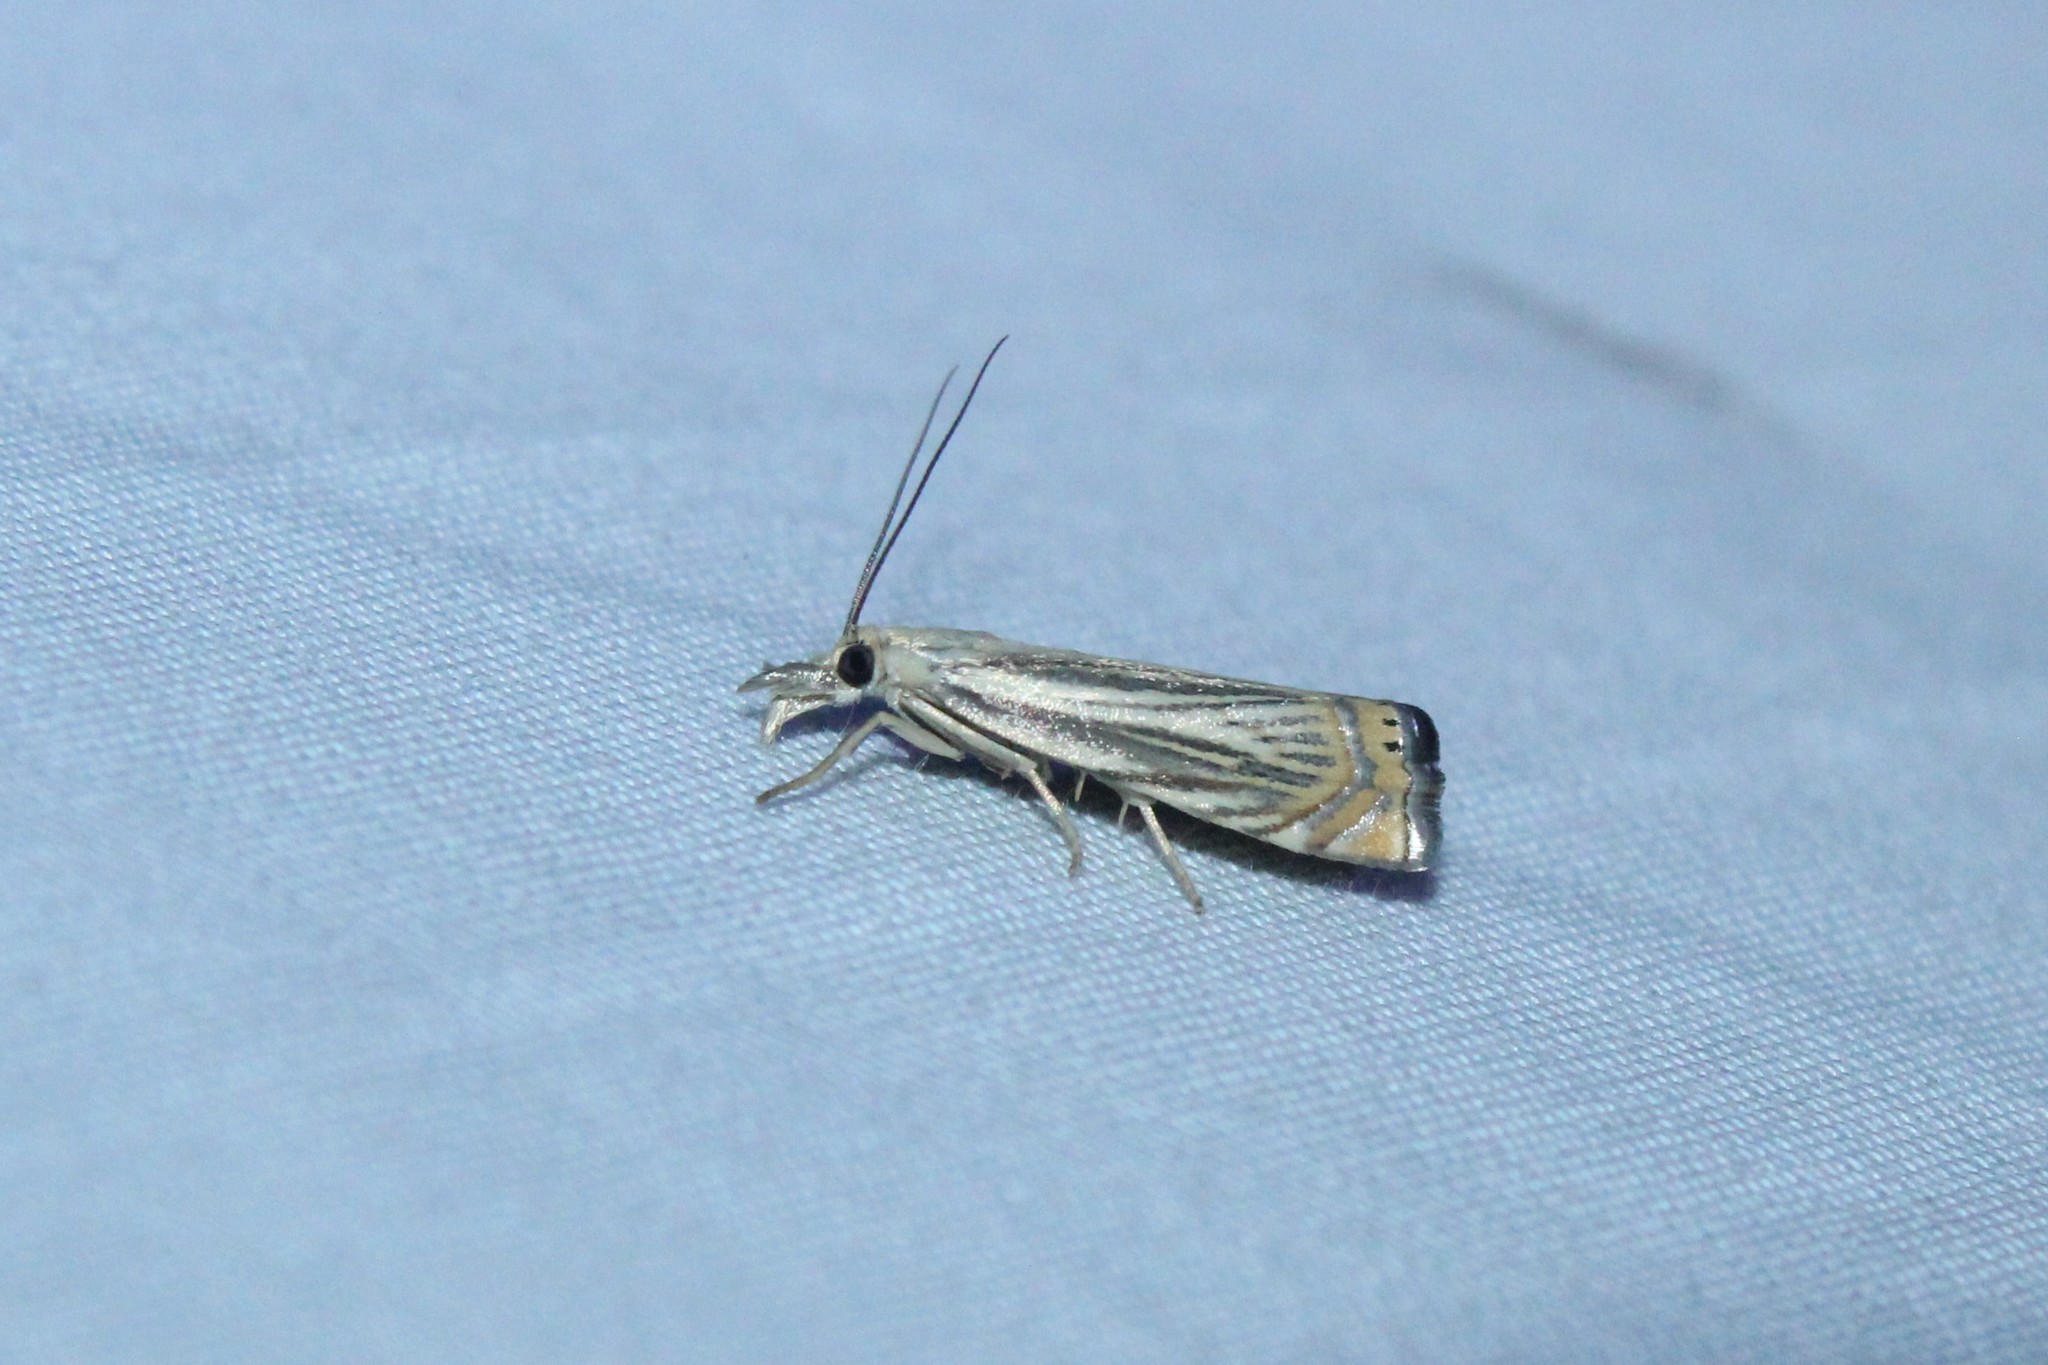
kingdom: Animalia
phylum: Arthropoda
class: Insecta
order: Lepidoptera
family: Crambidae
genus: Chrysoteuchia
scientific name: Chrysoteuchia topiarius
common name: Topiary grass-veneer
